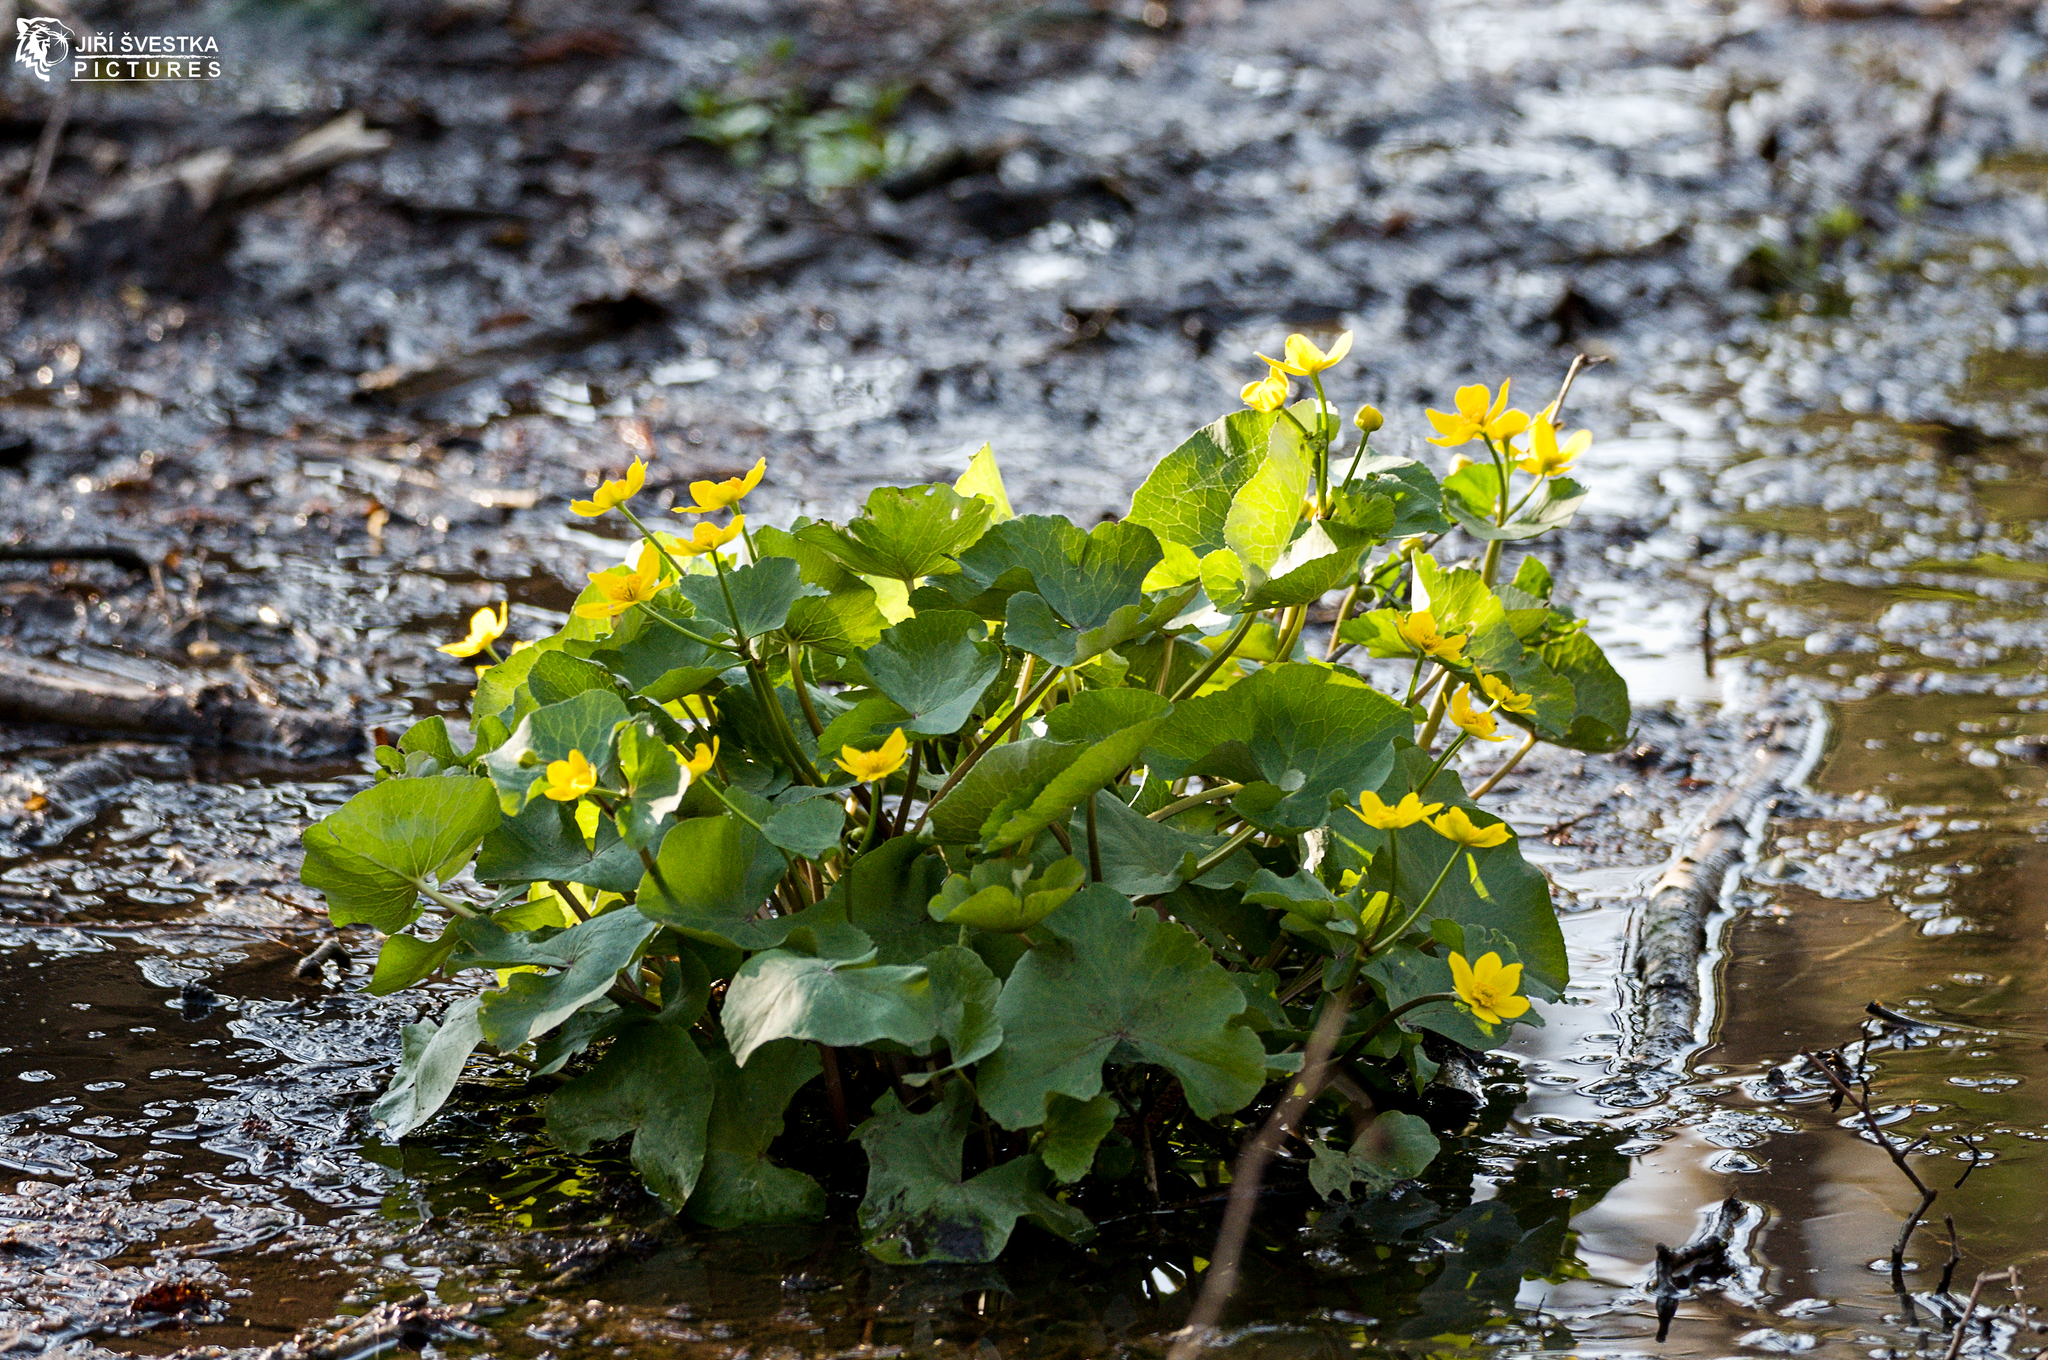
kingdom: Plantae
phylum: Tracheophyta
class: Magnoliopsida
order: Ranunculales
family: Ranunculaceae
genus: Caltha
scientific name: Caltha palustris
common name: Marsh marigold
